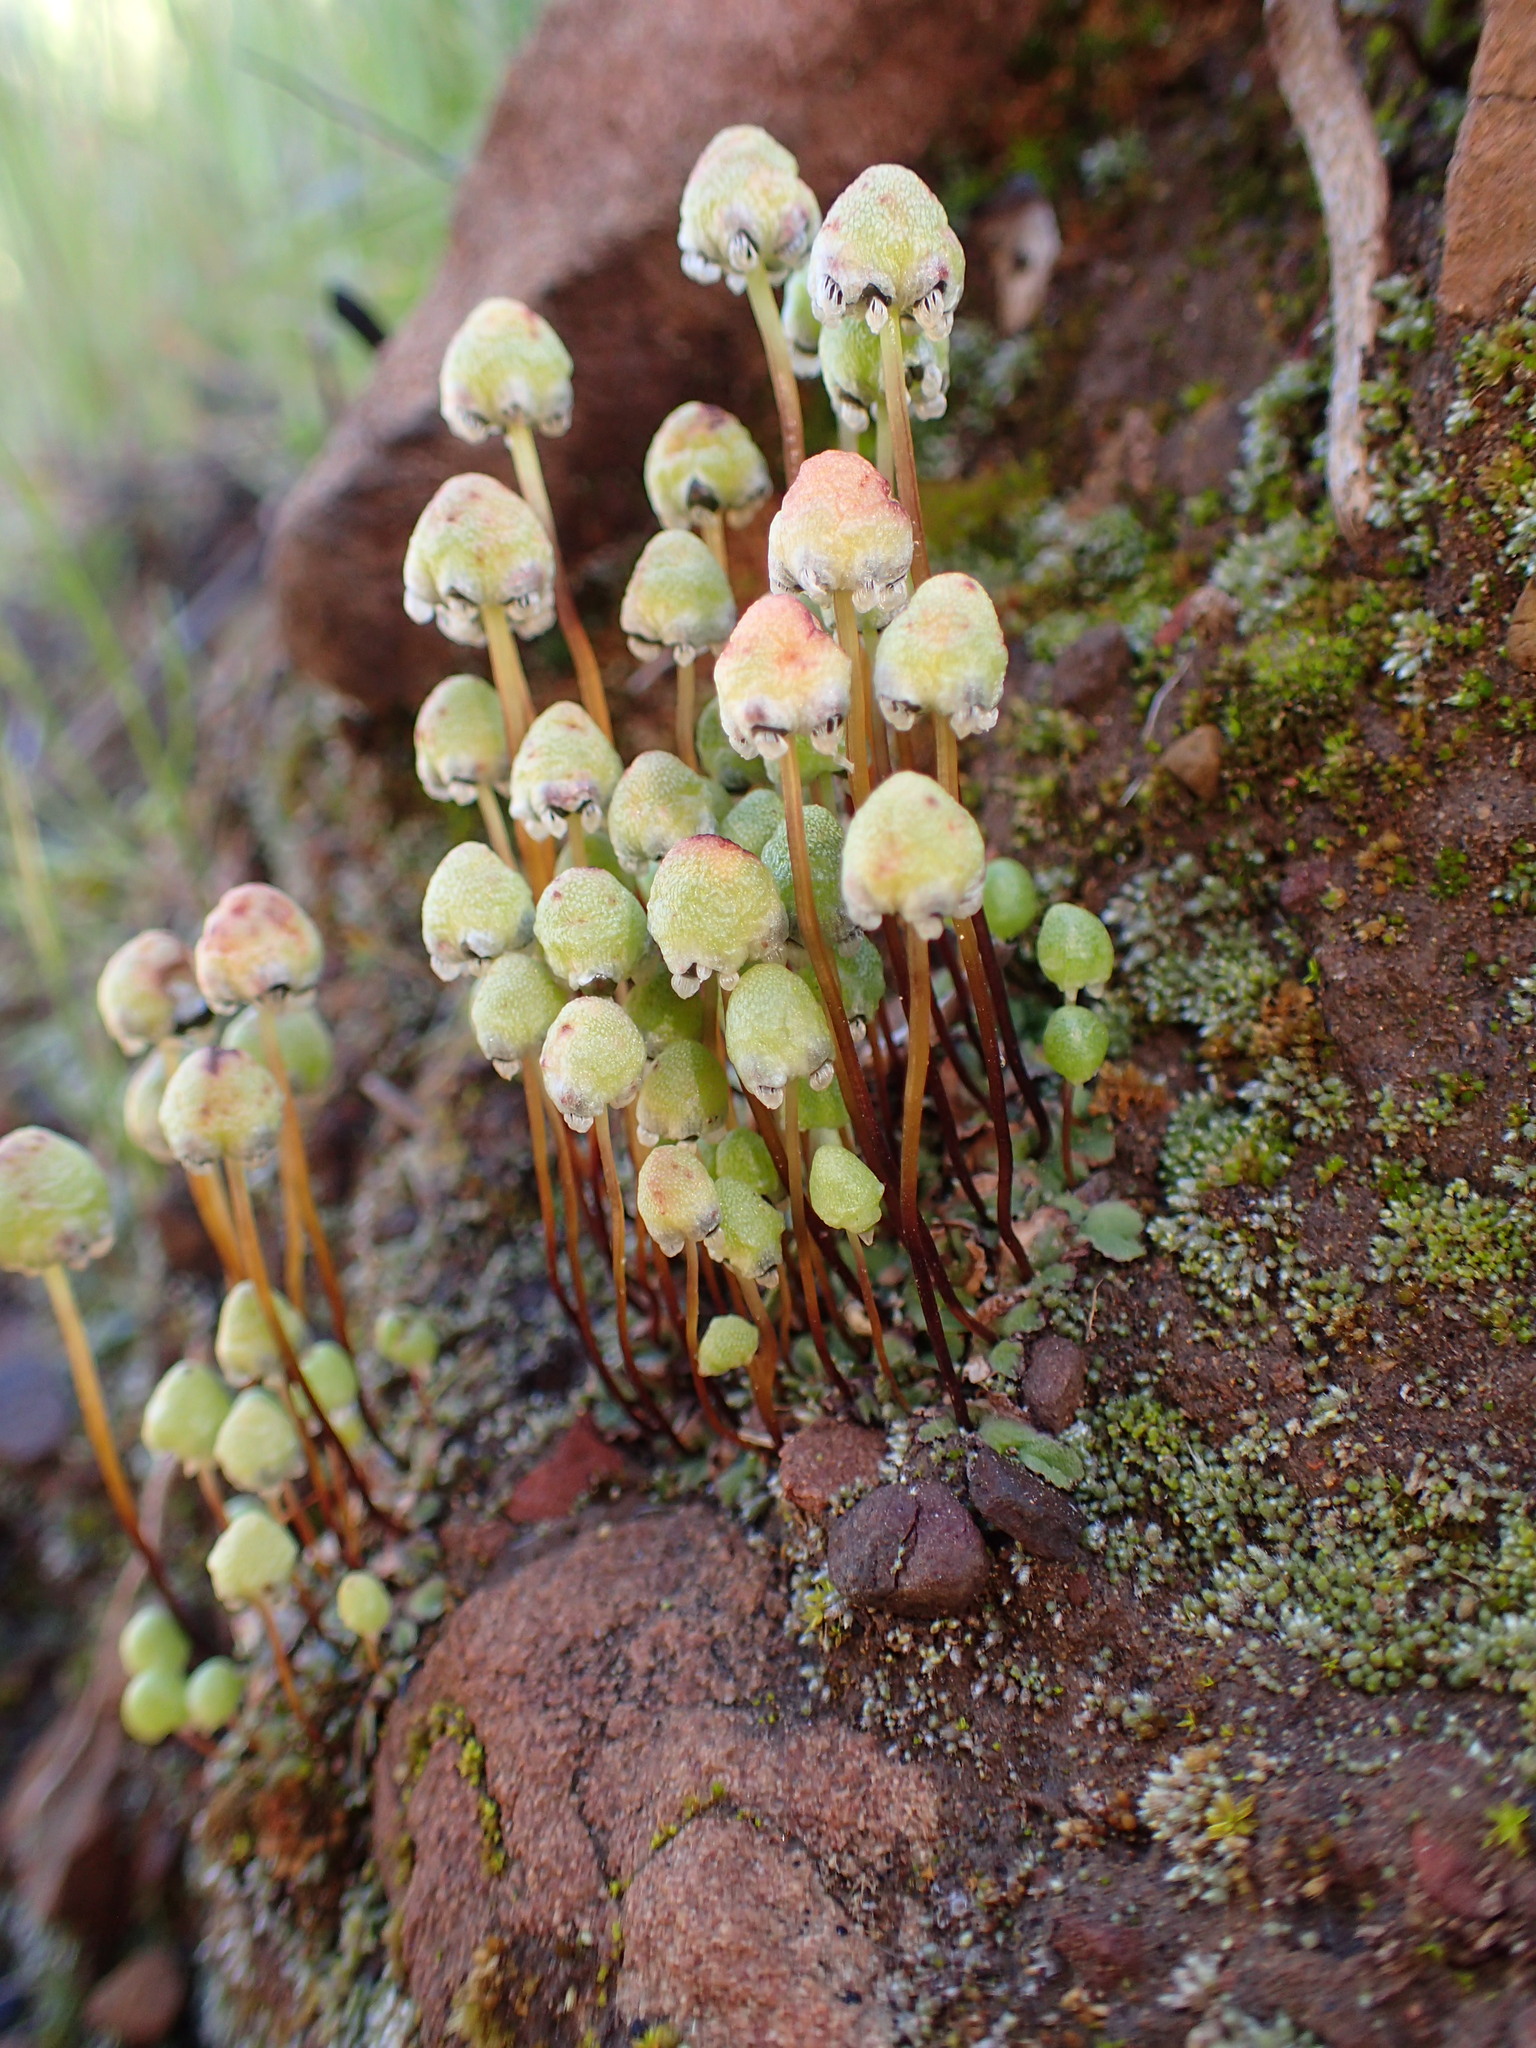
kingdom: Plantae
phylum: Marchantiophyta
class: Marchantiopsida
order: Marchantiales
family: Aytoniaceae
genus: Asterella
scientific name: Asterella palmeri
